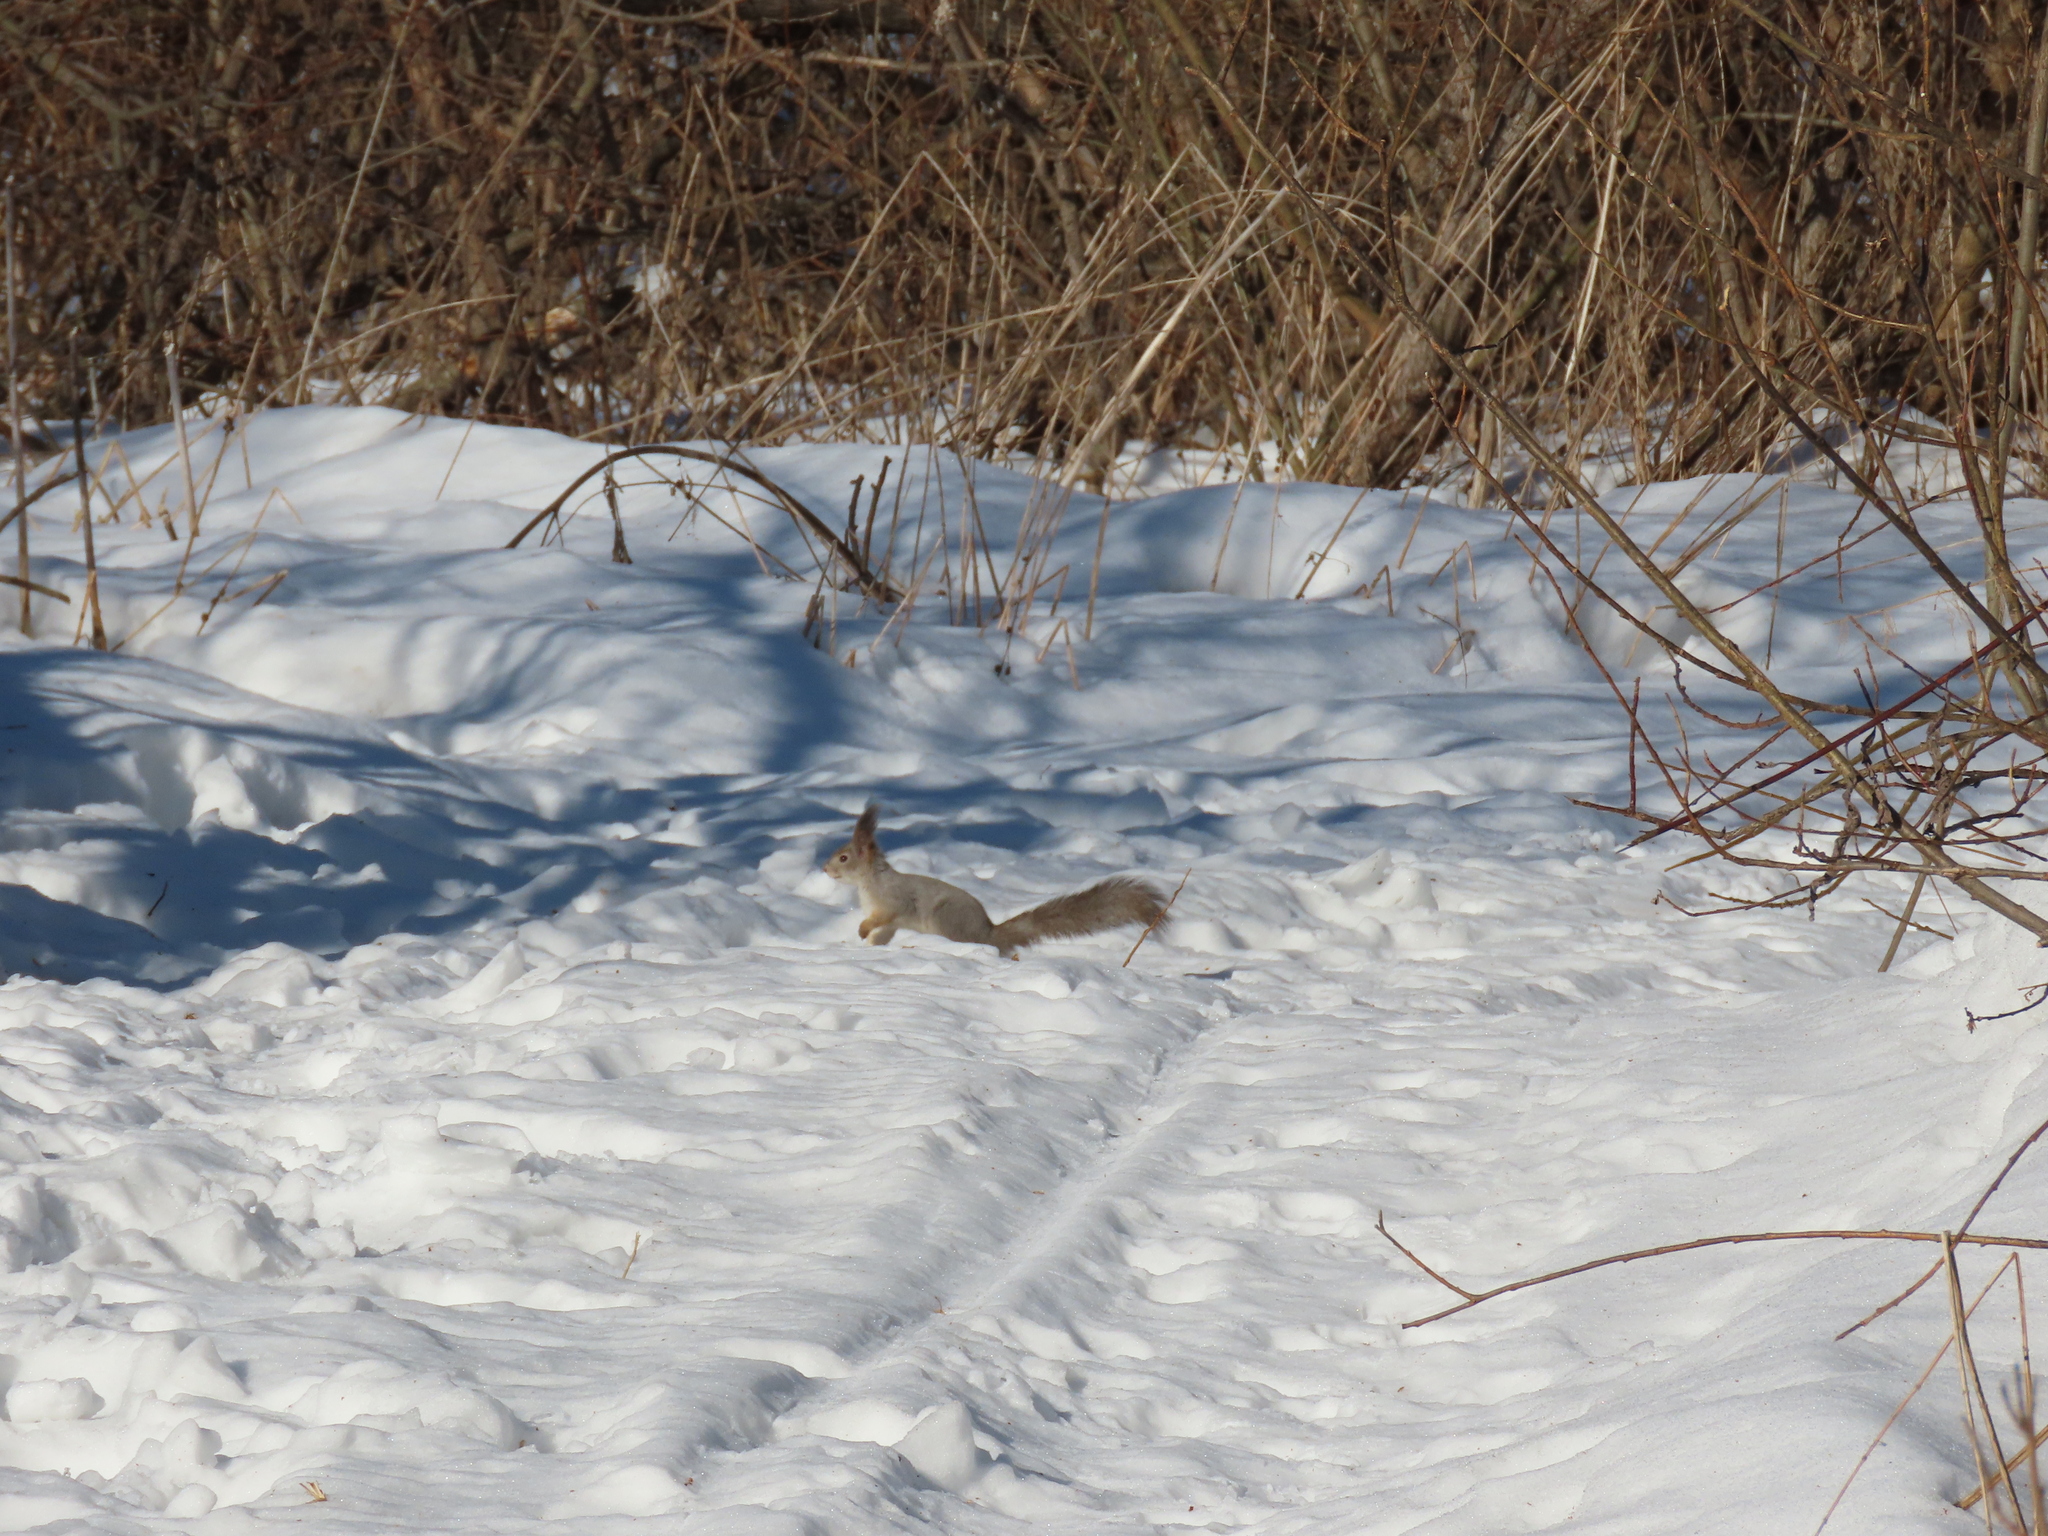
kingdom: Animalia
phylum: Chordata
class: Mammalia
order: Rodentia
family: Sciuridae
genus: Sciurus
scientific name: Sciurus vulgaris
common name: Eurasian red squirrel
